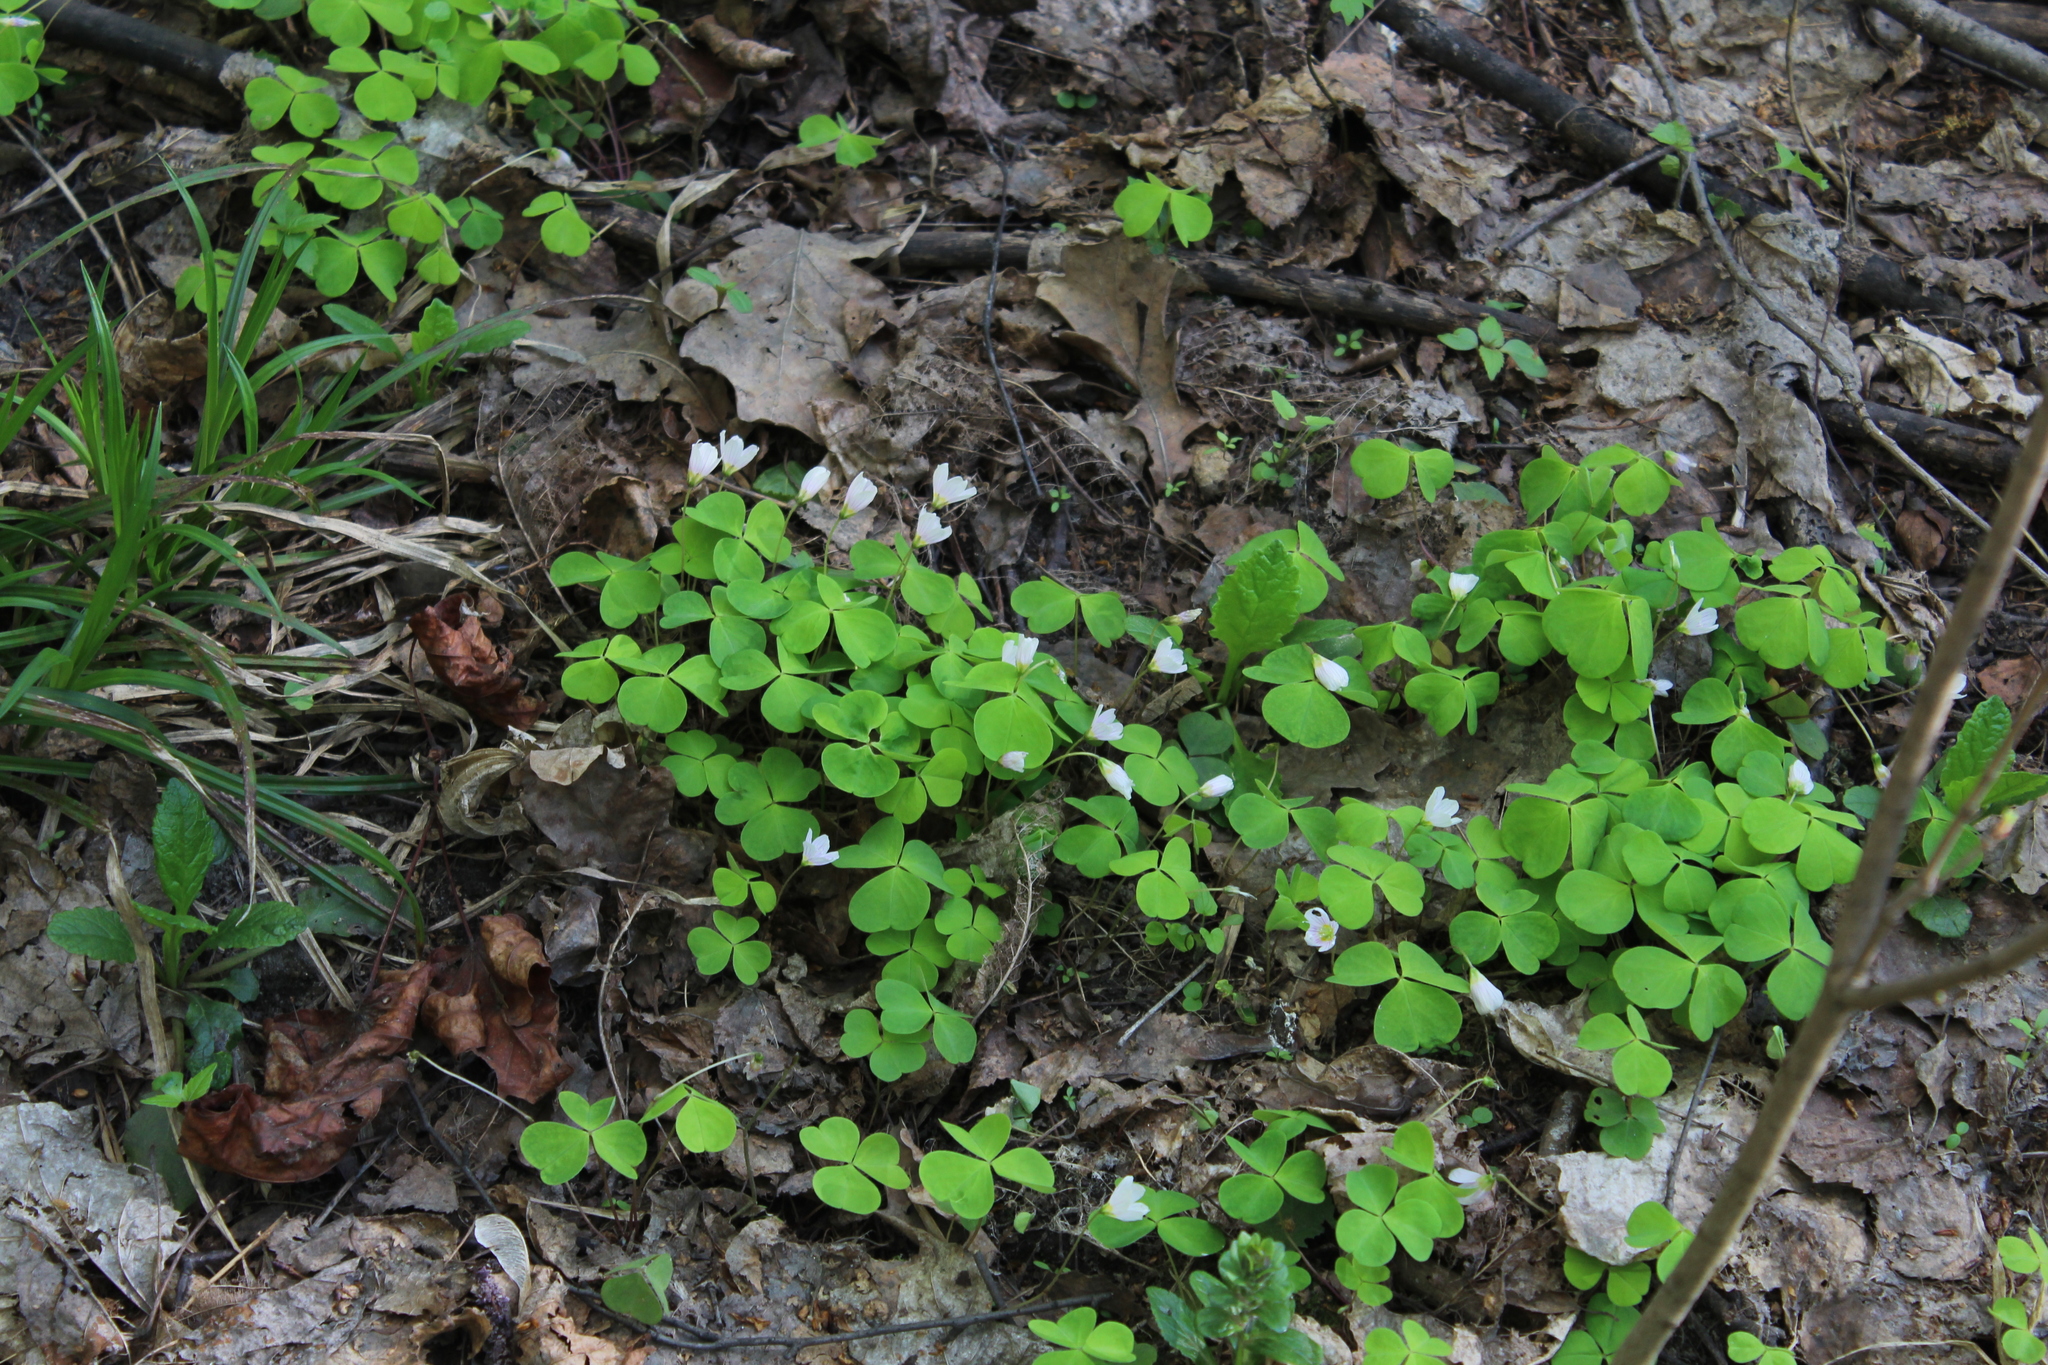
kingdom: Plantae
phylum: Tracheophyta
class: Magnoliopsida
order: Oxalidales
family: Oxalidaceae
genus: Oxalis
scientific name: Oxalis acetosella
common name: Wood-sorrel
